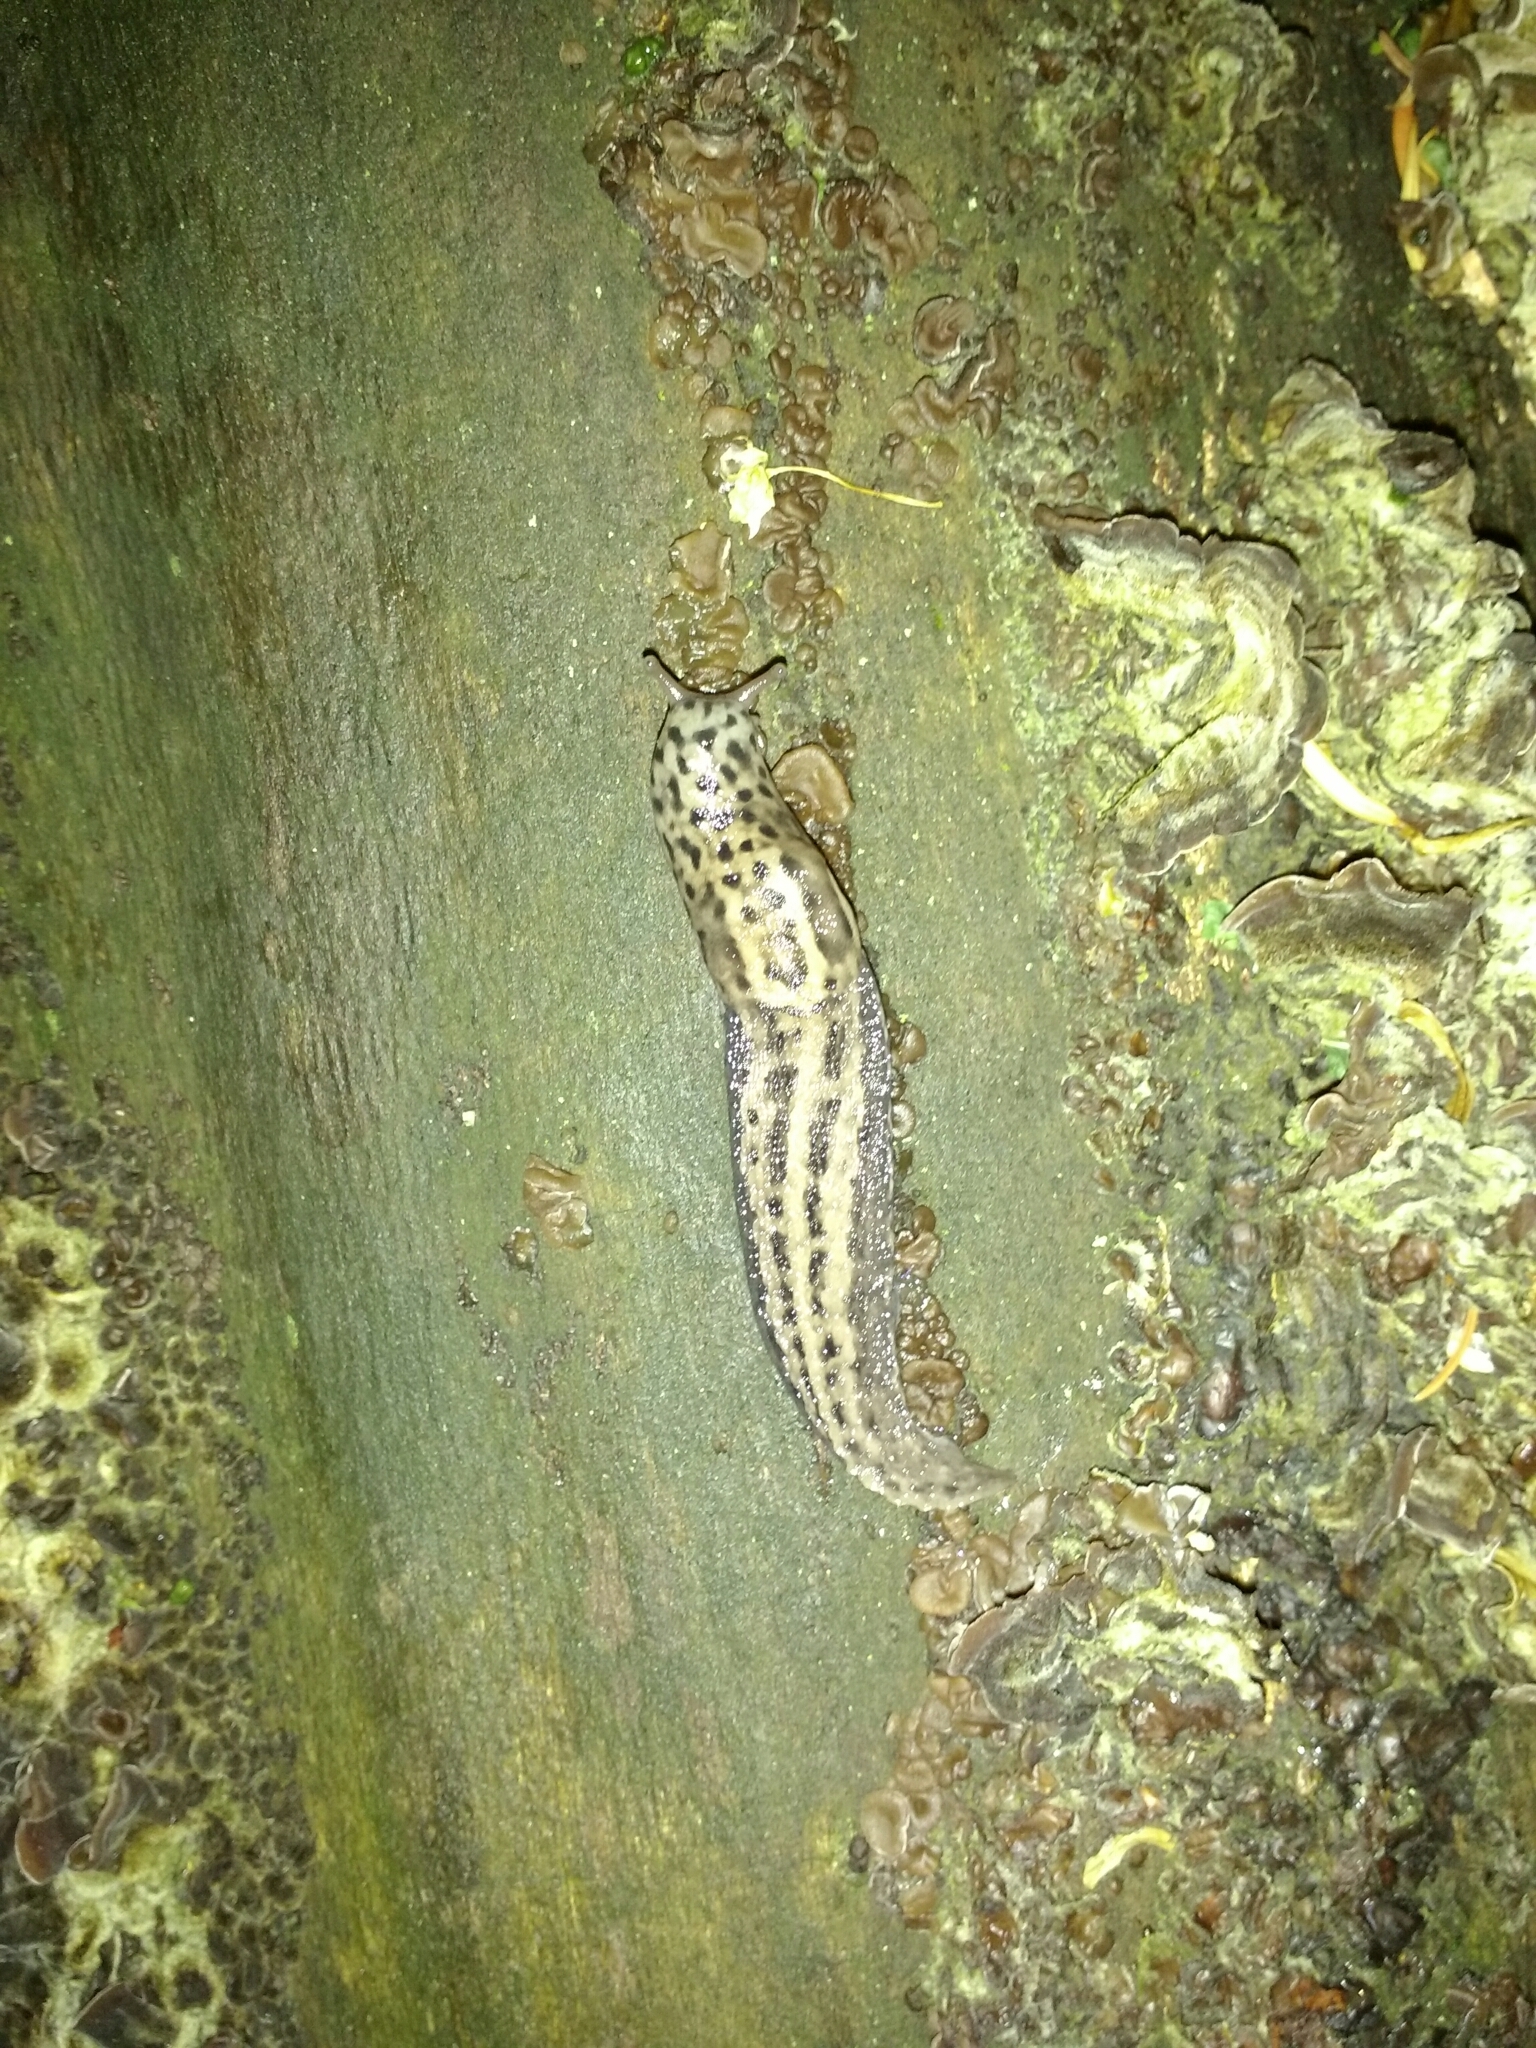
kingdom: Animalia
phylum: Mollusca
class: Gastropoda
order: Stylommatophora
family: Limacidae
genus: Limax
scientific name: Limax maximus
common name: Great grey slug
